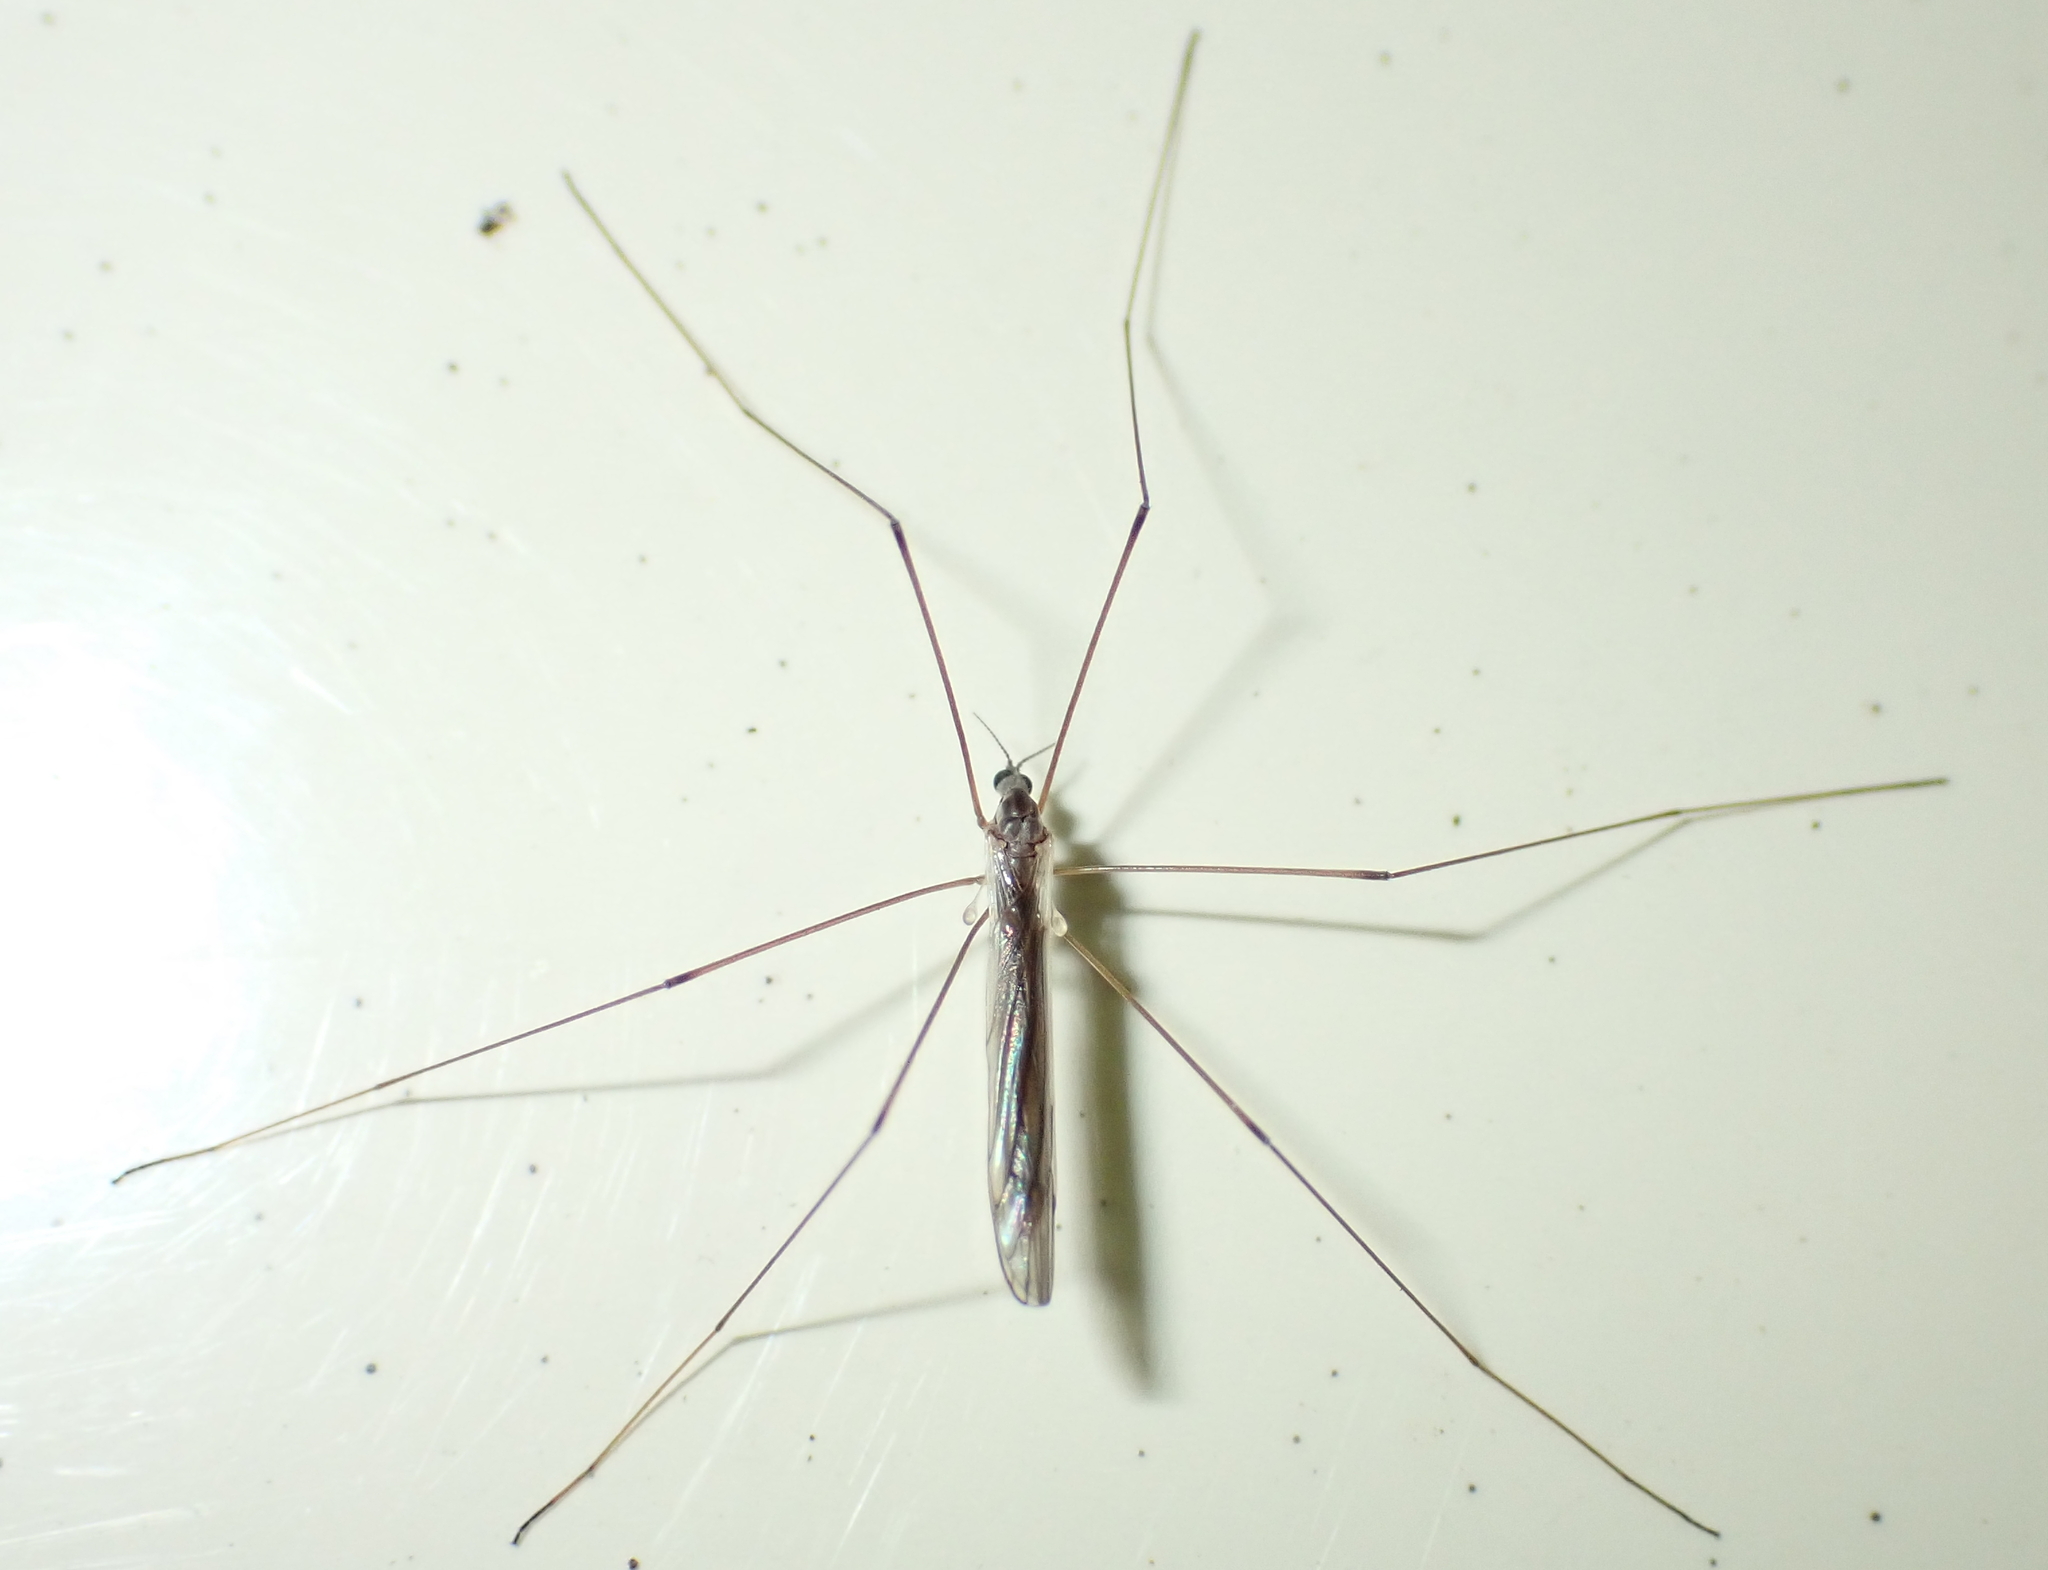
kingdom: Animalia
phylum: Arthropoda
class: Insecta
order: Diptera
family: Limoniidae
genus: Dicranomyia
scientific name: Dicranomyia aegrotans
